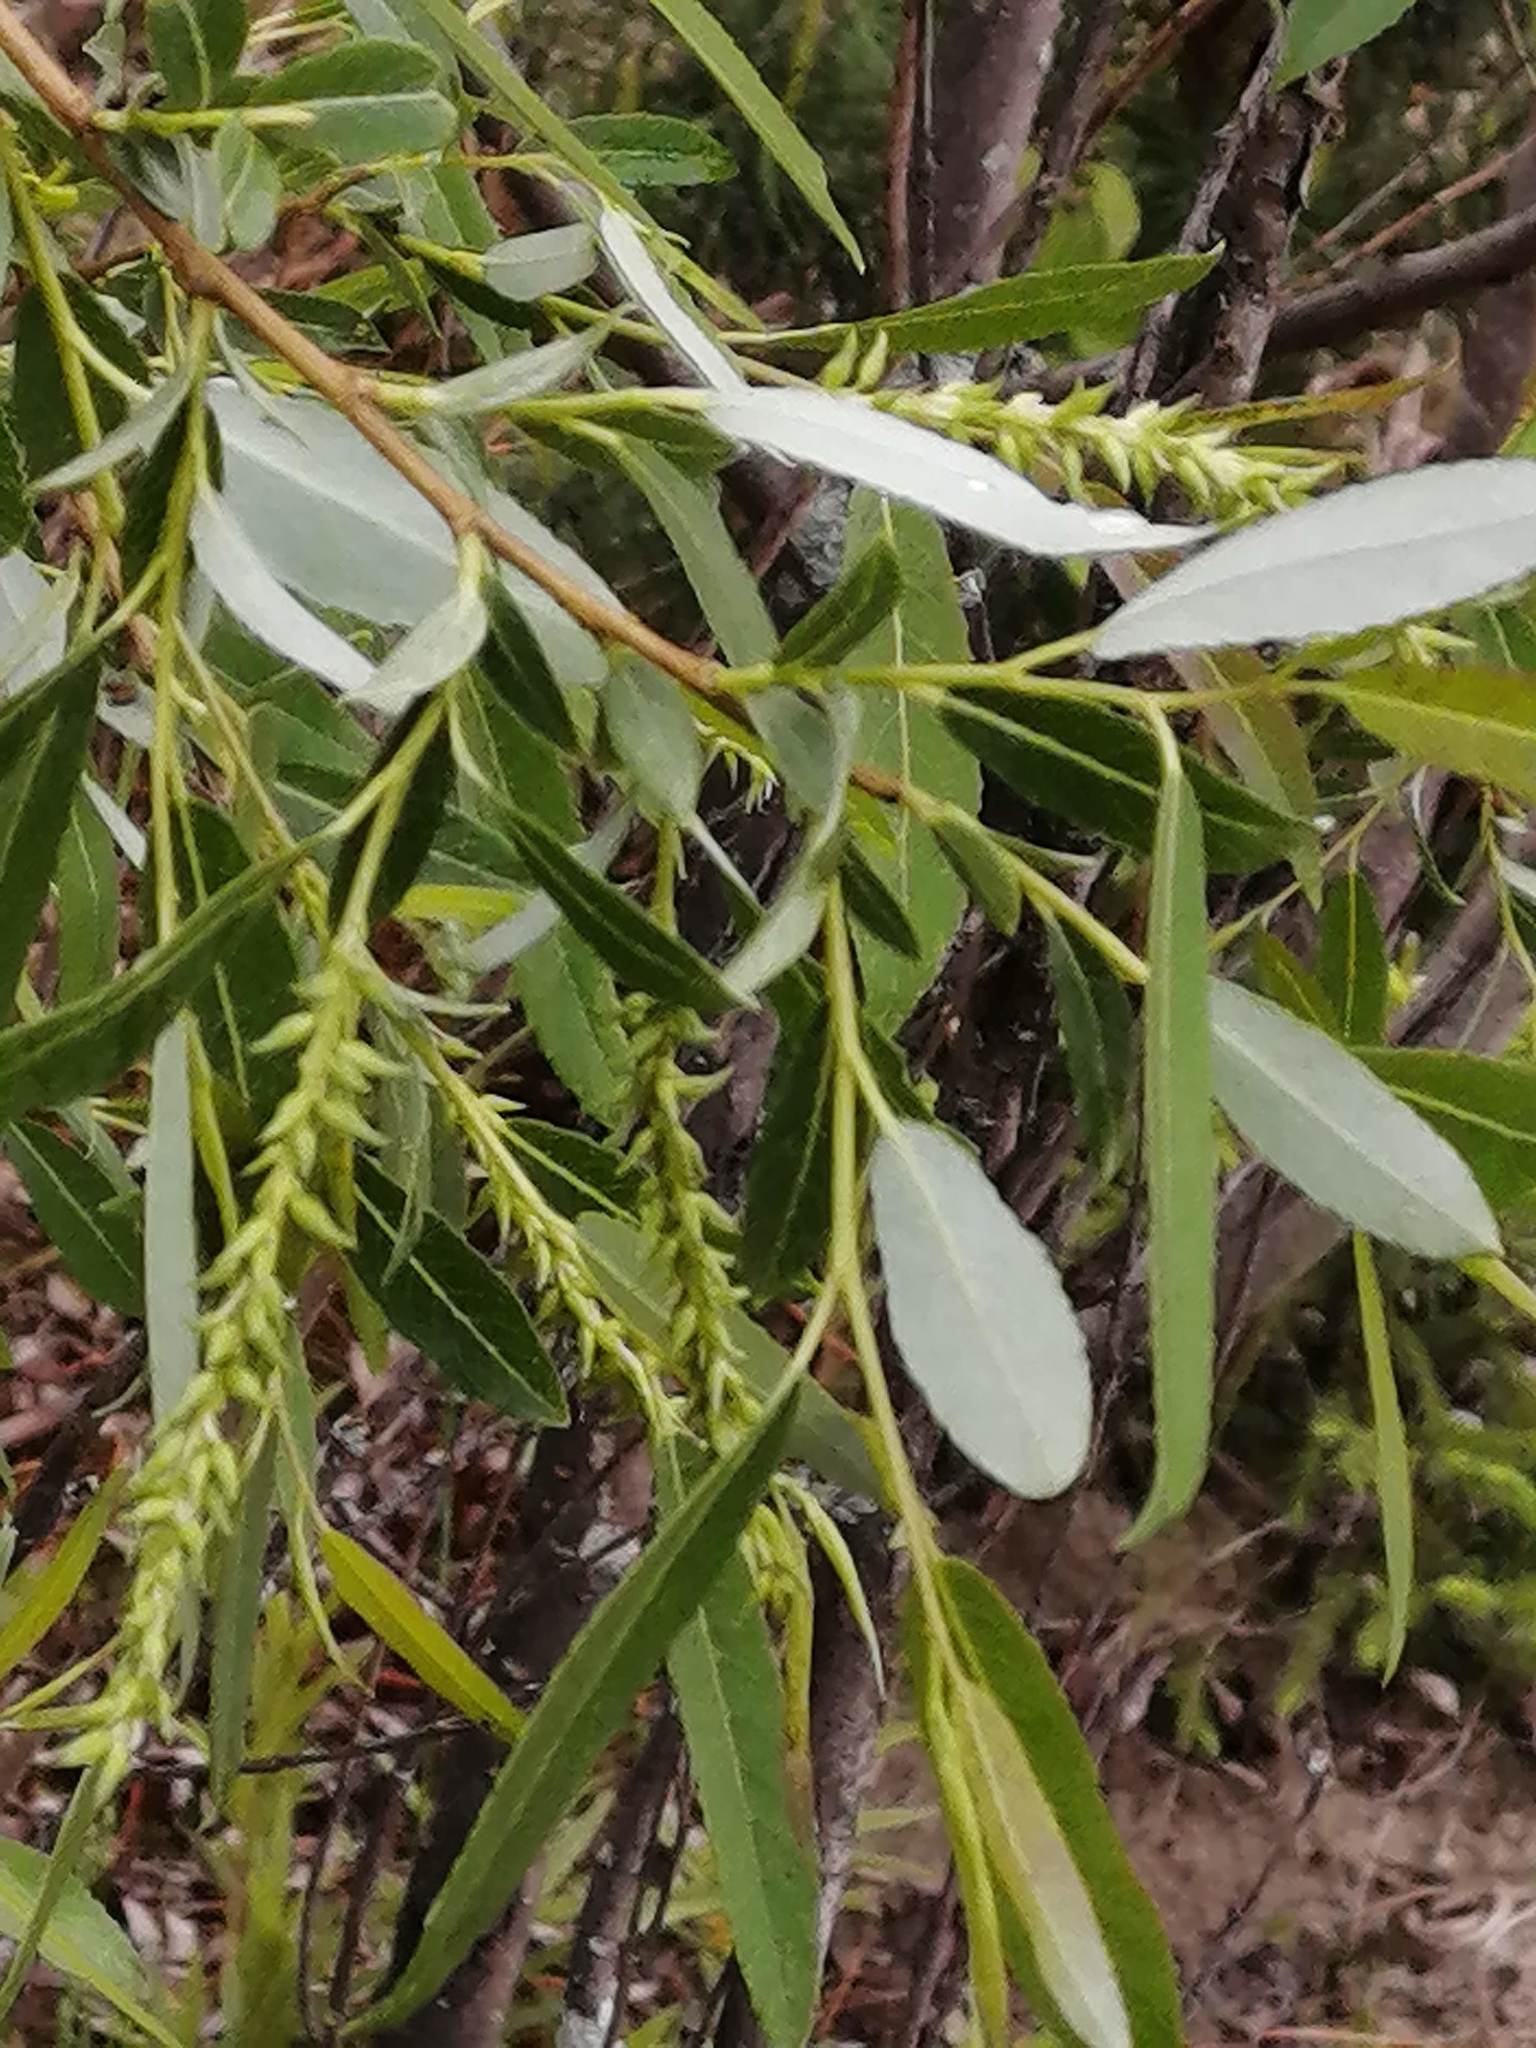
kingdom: Plantae
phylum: Tracheophyta
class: Magnoliopsida
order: Malpighiales
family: Salicaceae
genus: Salix
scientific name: Salix triandra
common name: Almond willow
